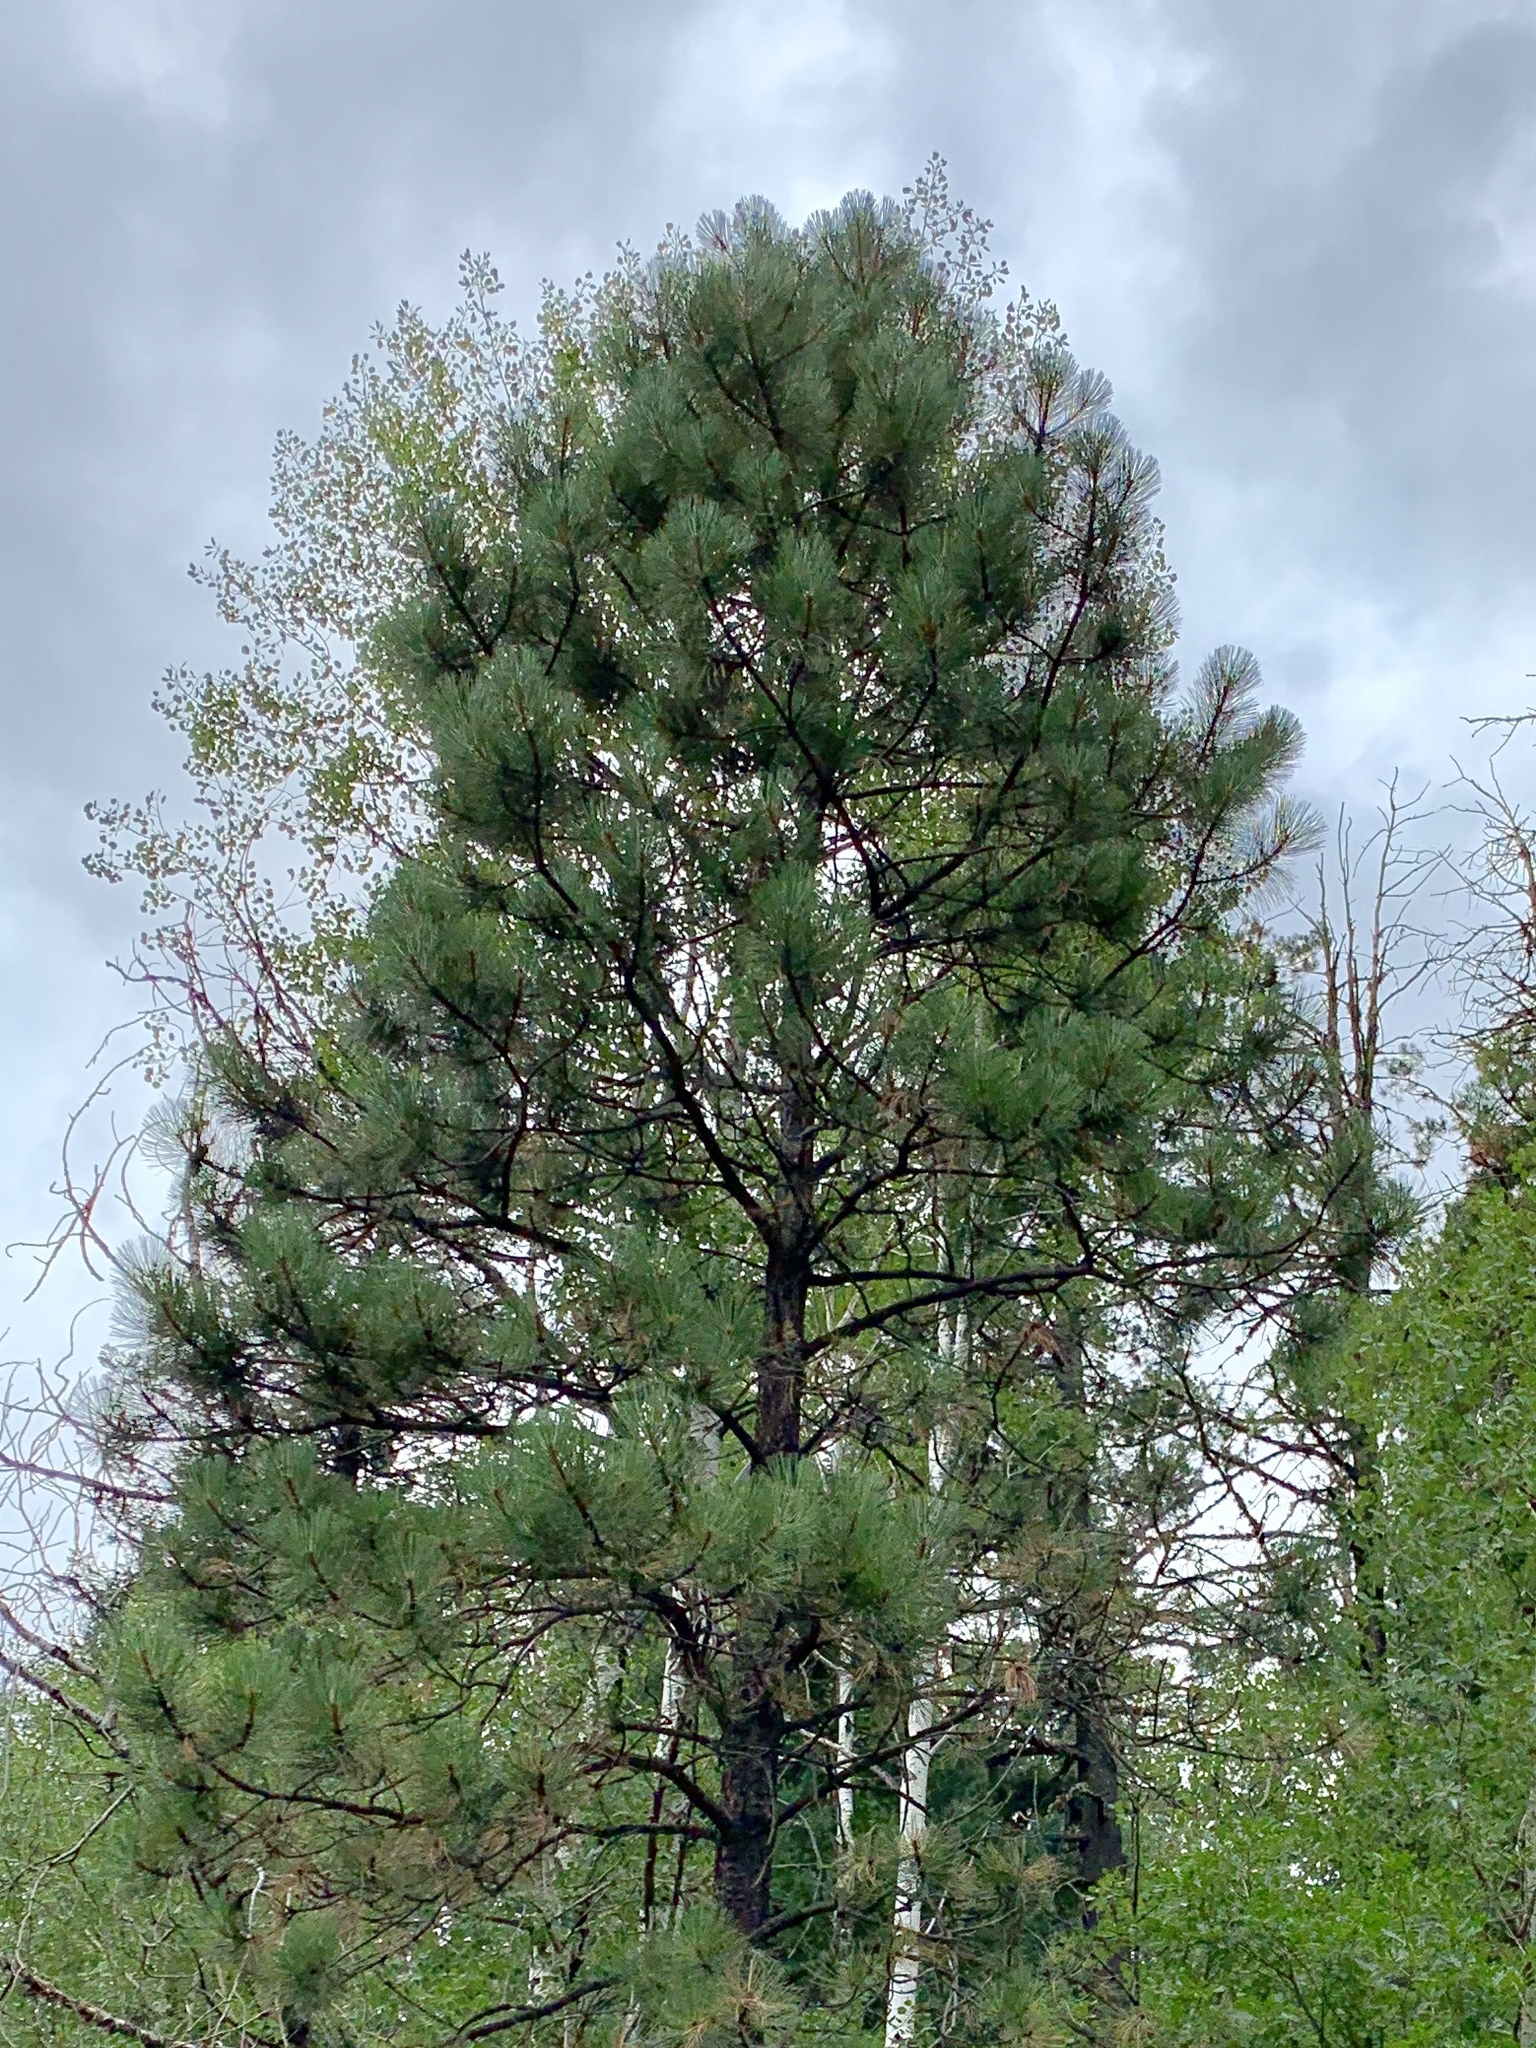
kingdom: Plantae
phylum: Tracheophyta
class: Pinopsida
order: Pinales
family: Pinaceae
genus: Pinus
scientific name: Pinus ponderosa
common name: Western yellow-pine
